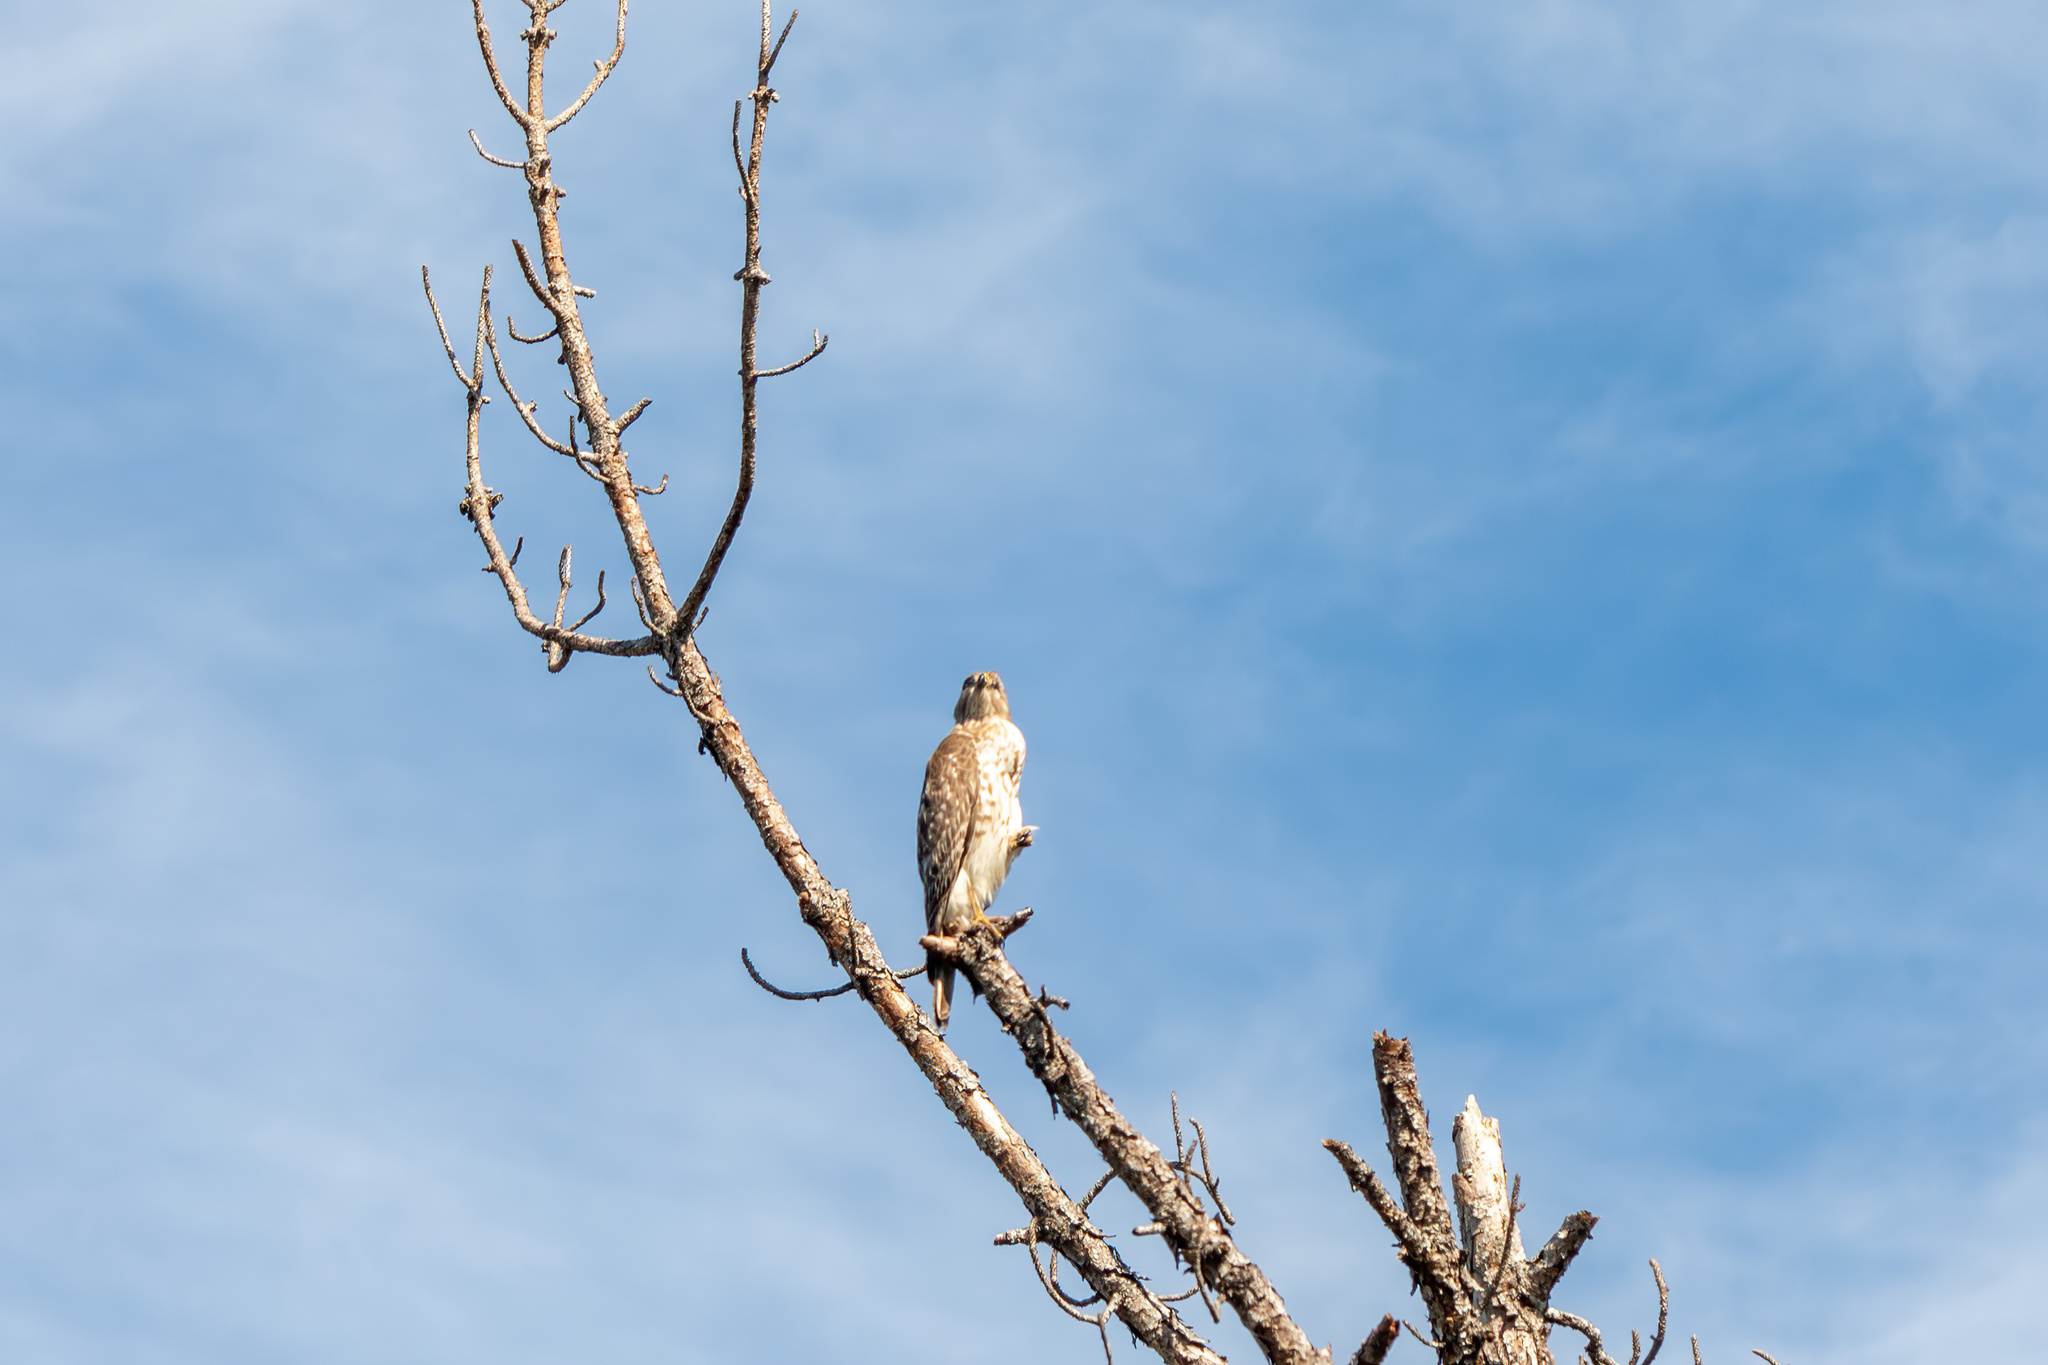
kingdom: Animalia
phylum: Chordata
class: Aves
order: Accipitriformes
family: Accipitridae
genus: Buteo
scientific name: Buteo lineatus
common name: Red-shouldered hawk
